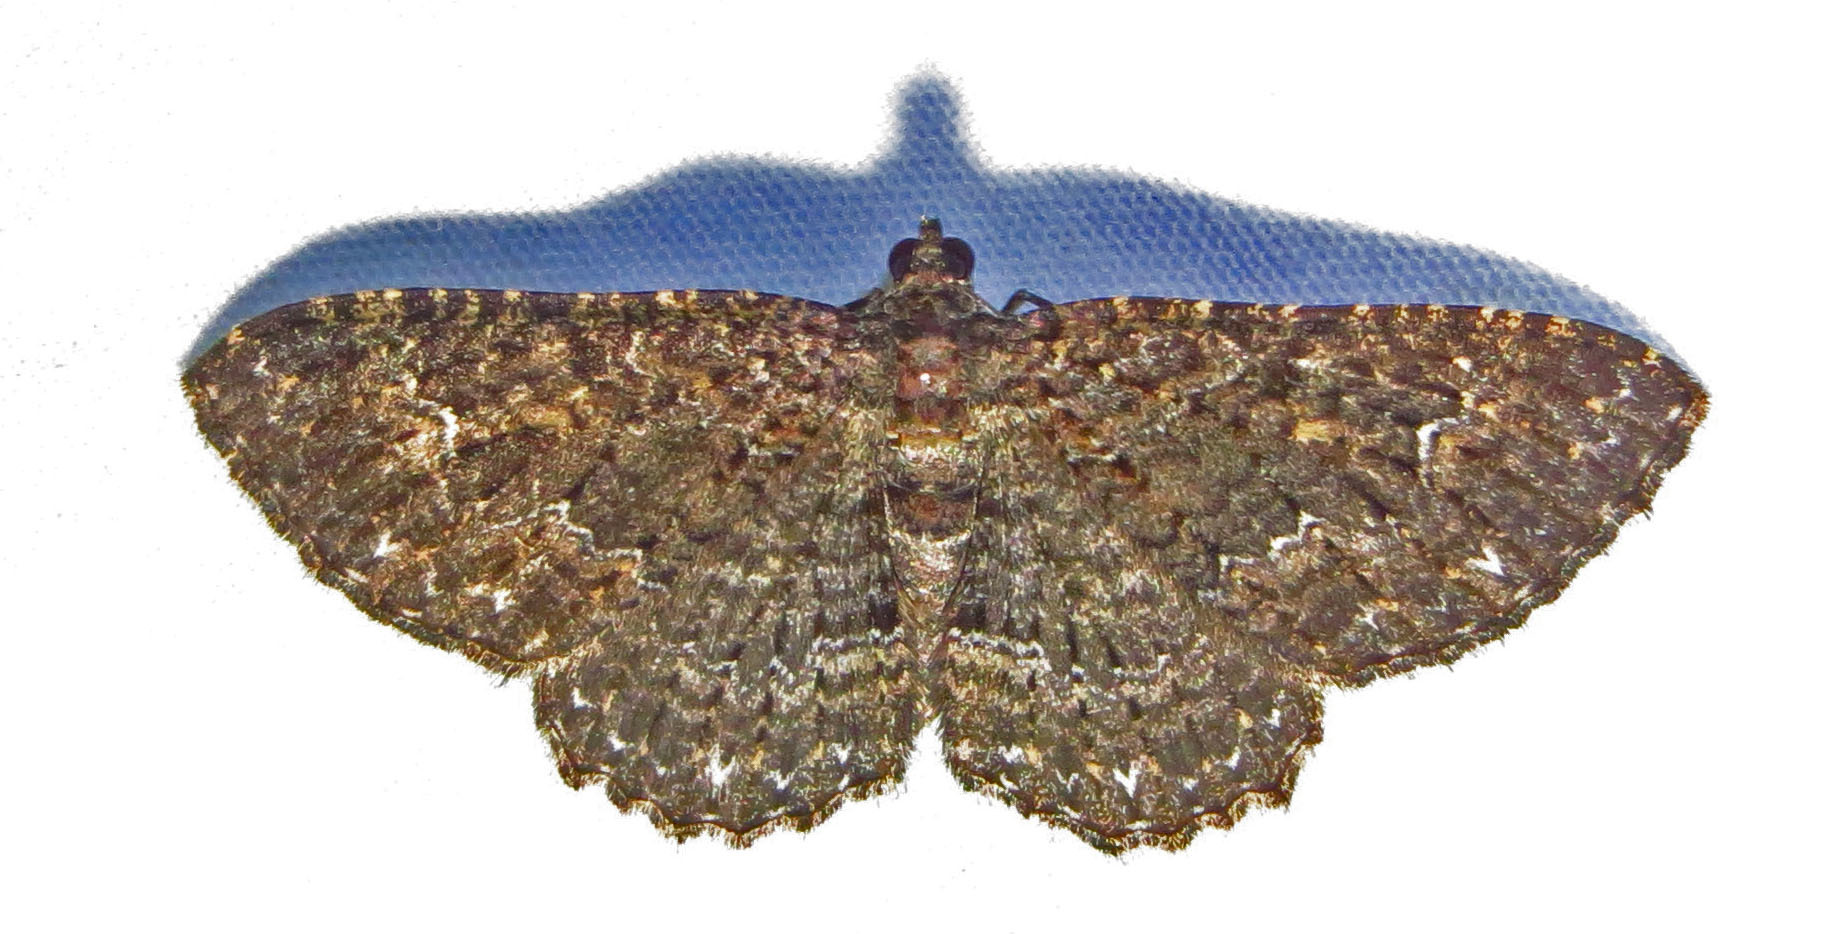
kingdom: Animalia
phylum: Arthropoda
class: Insecta
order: Lepidoptera
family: Geometridae
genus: Disclisioprocta
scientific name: Disclisioprocta stellata
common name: Somber carpet
